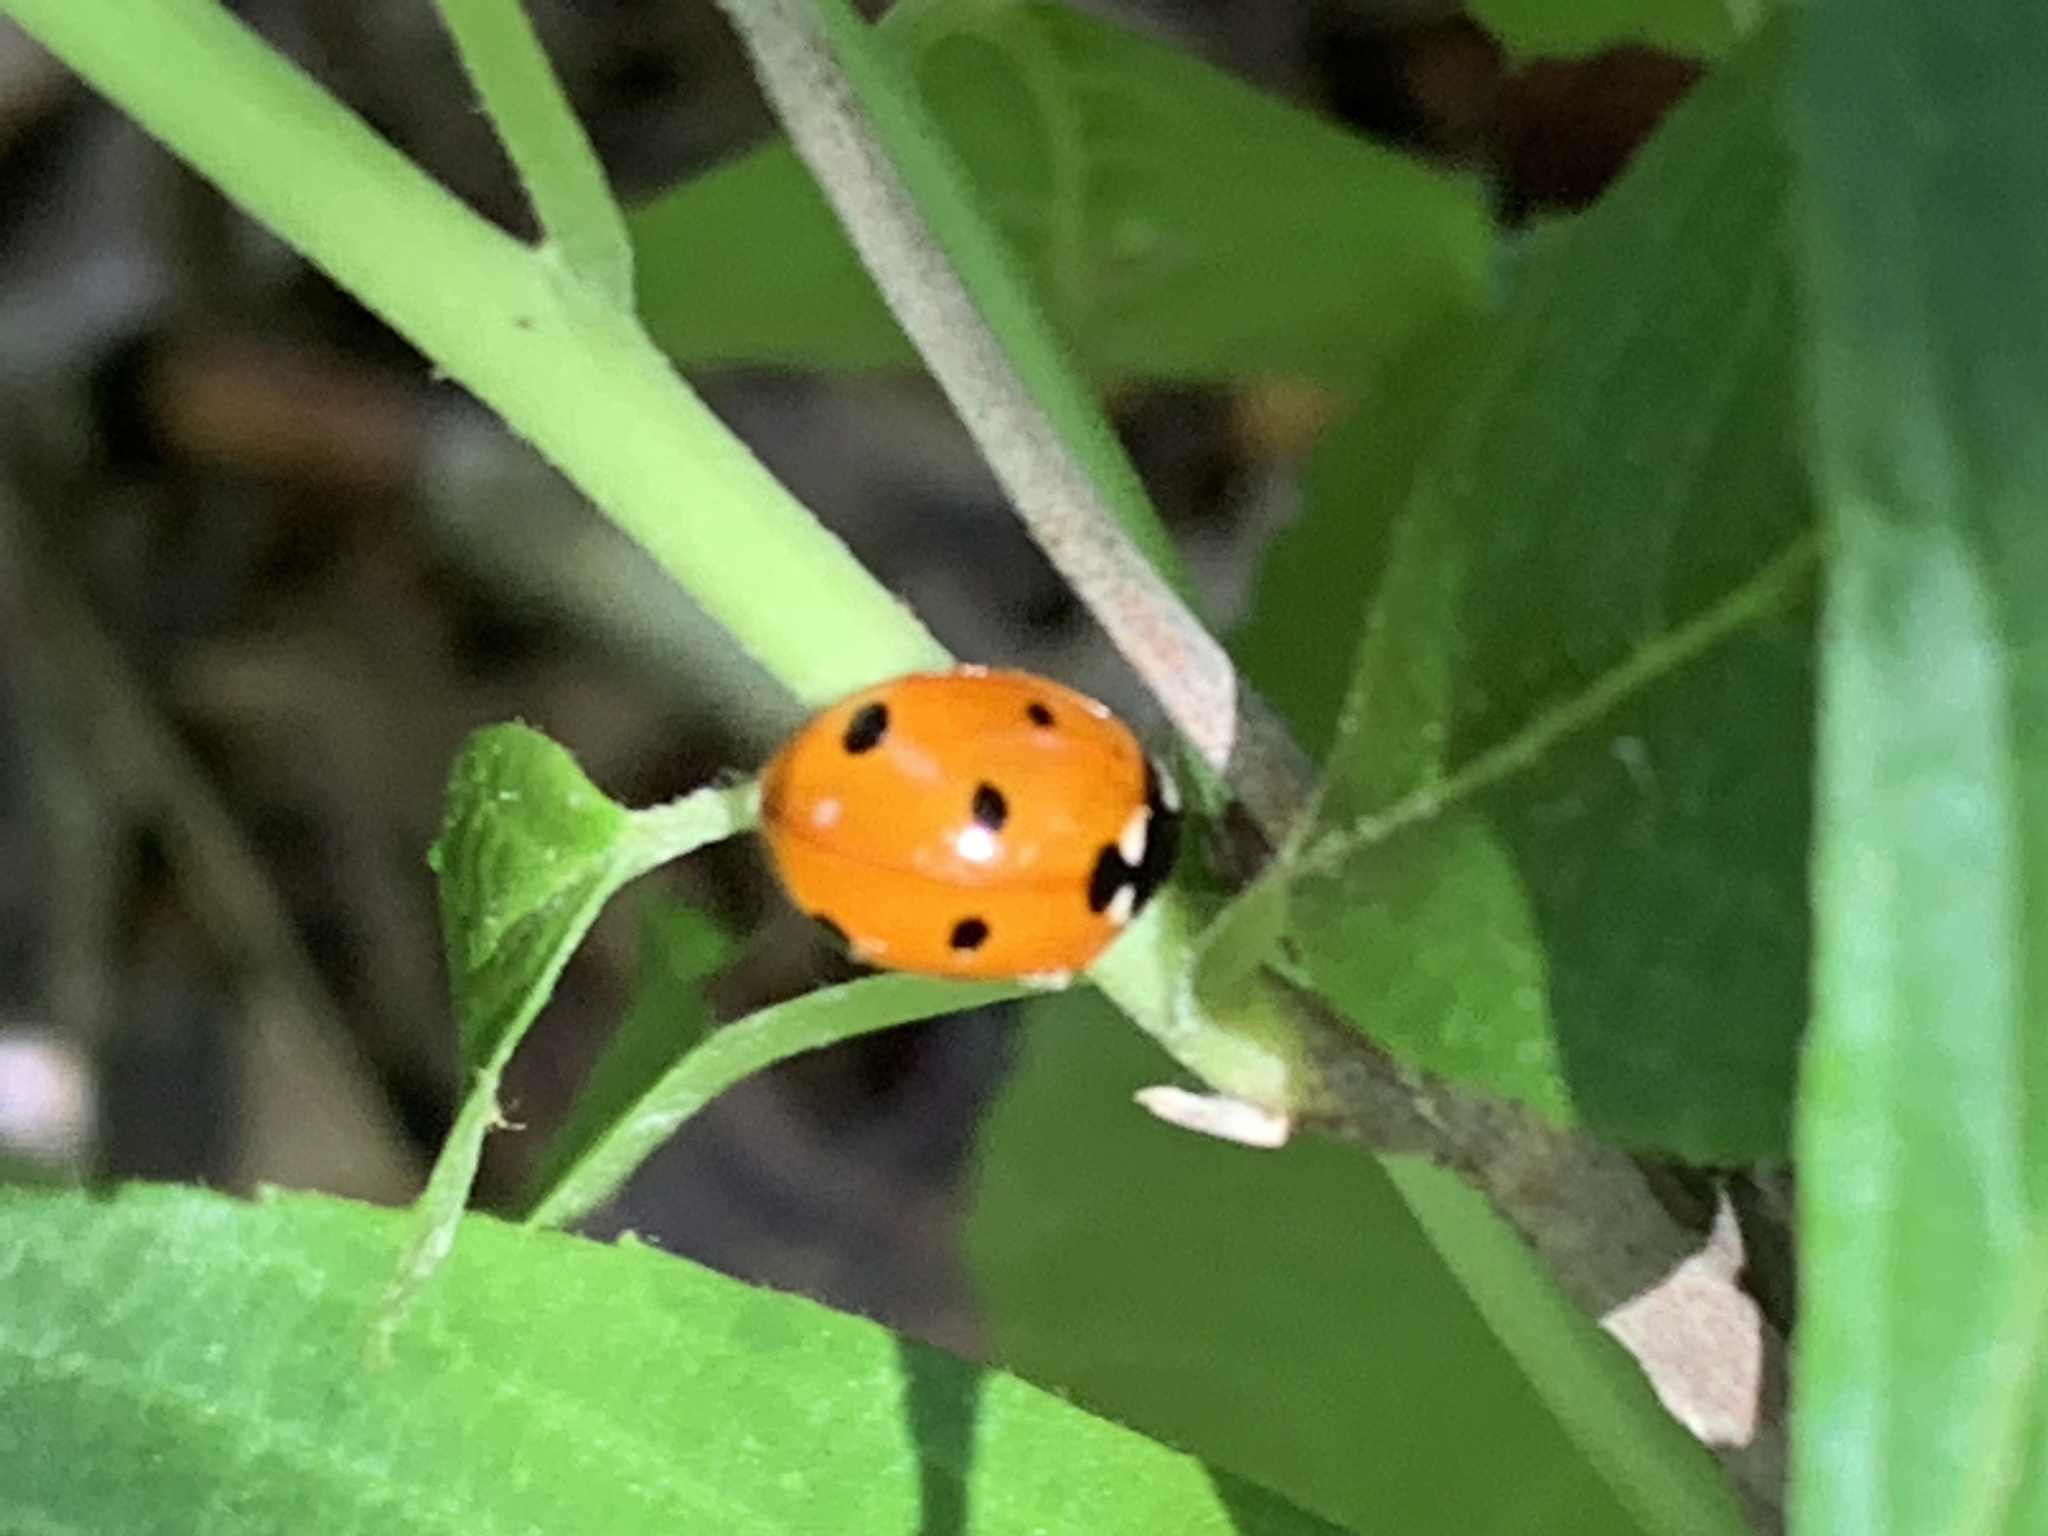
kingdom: Animalia
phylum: Arthropoda
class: Insecta
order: Coleoptera
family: Coccinellidae
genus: Coccinella
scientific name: Coccinella septempunctata
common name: Sevenspotted lady beetle
